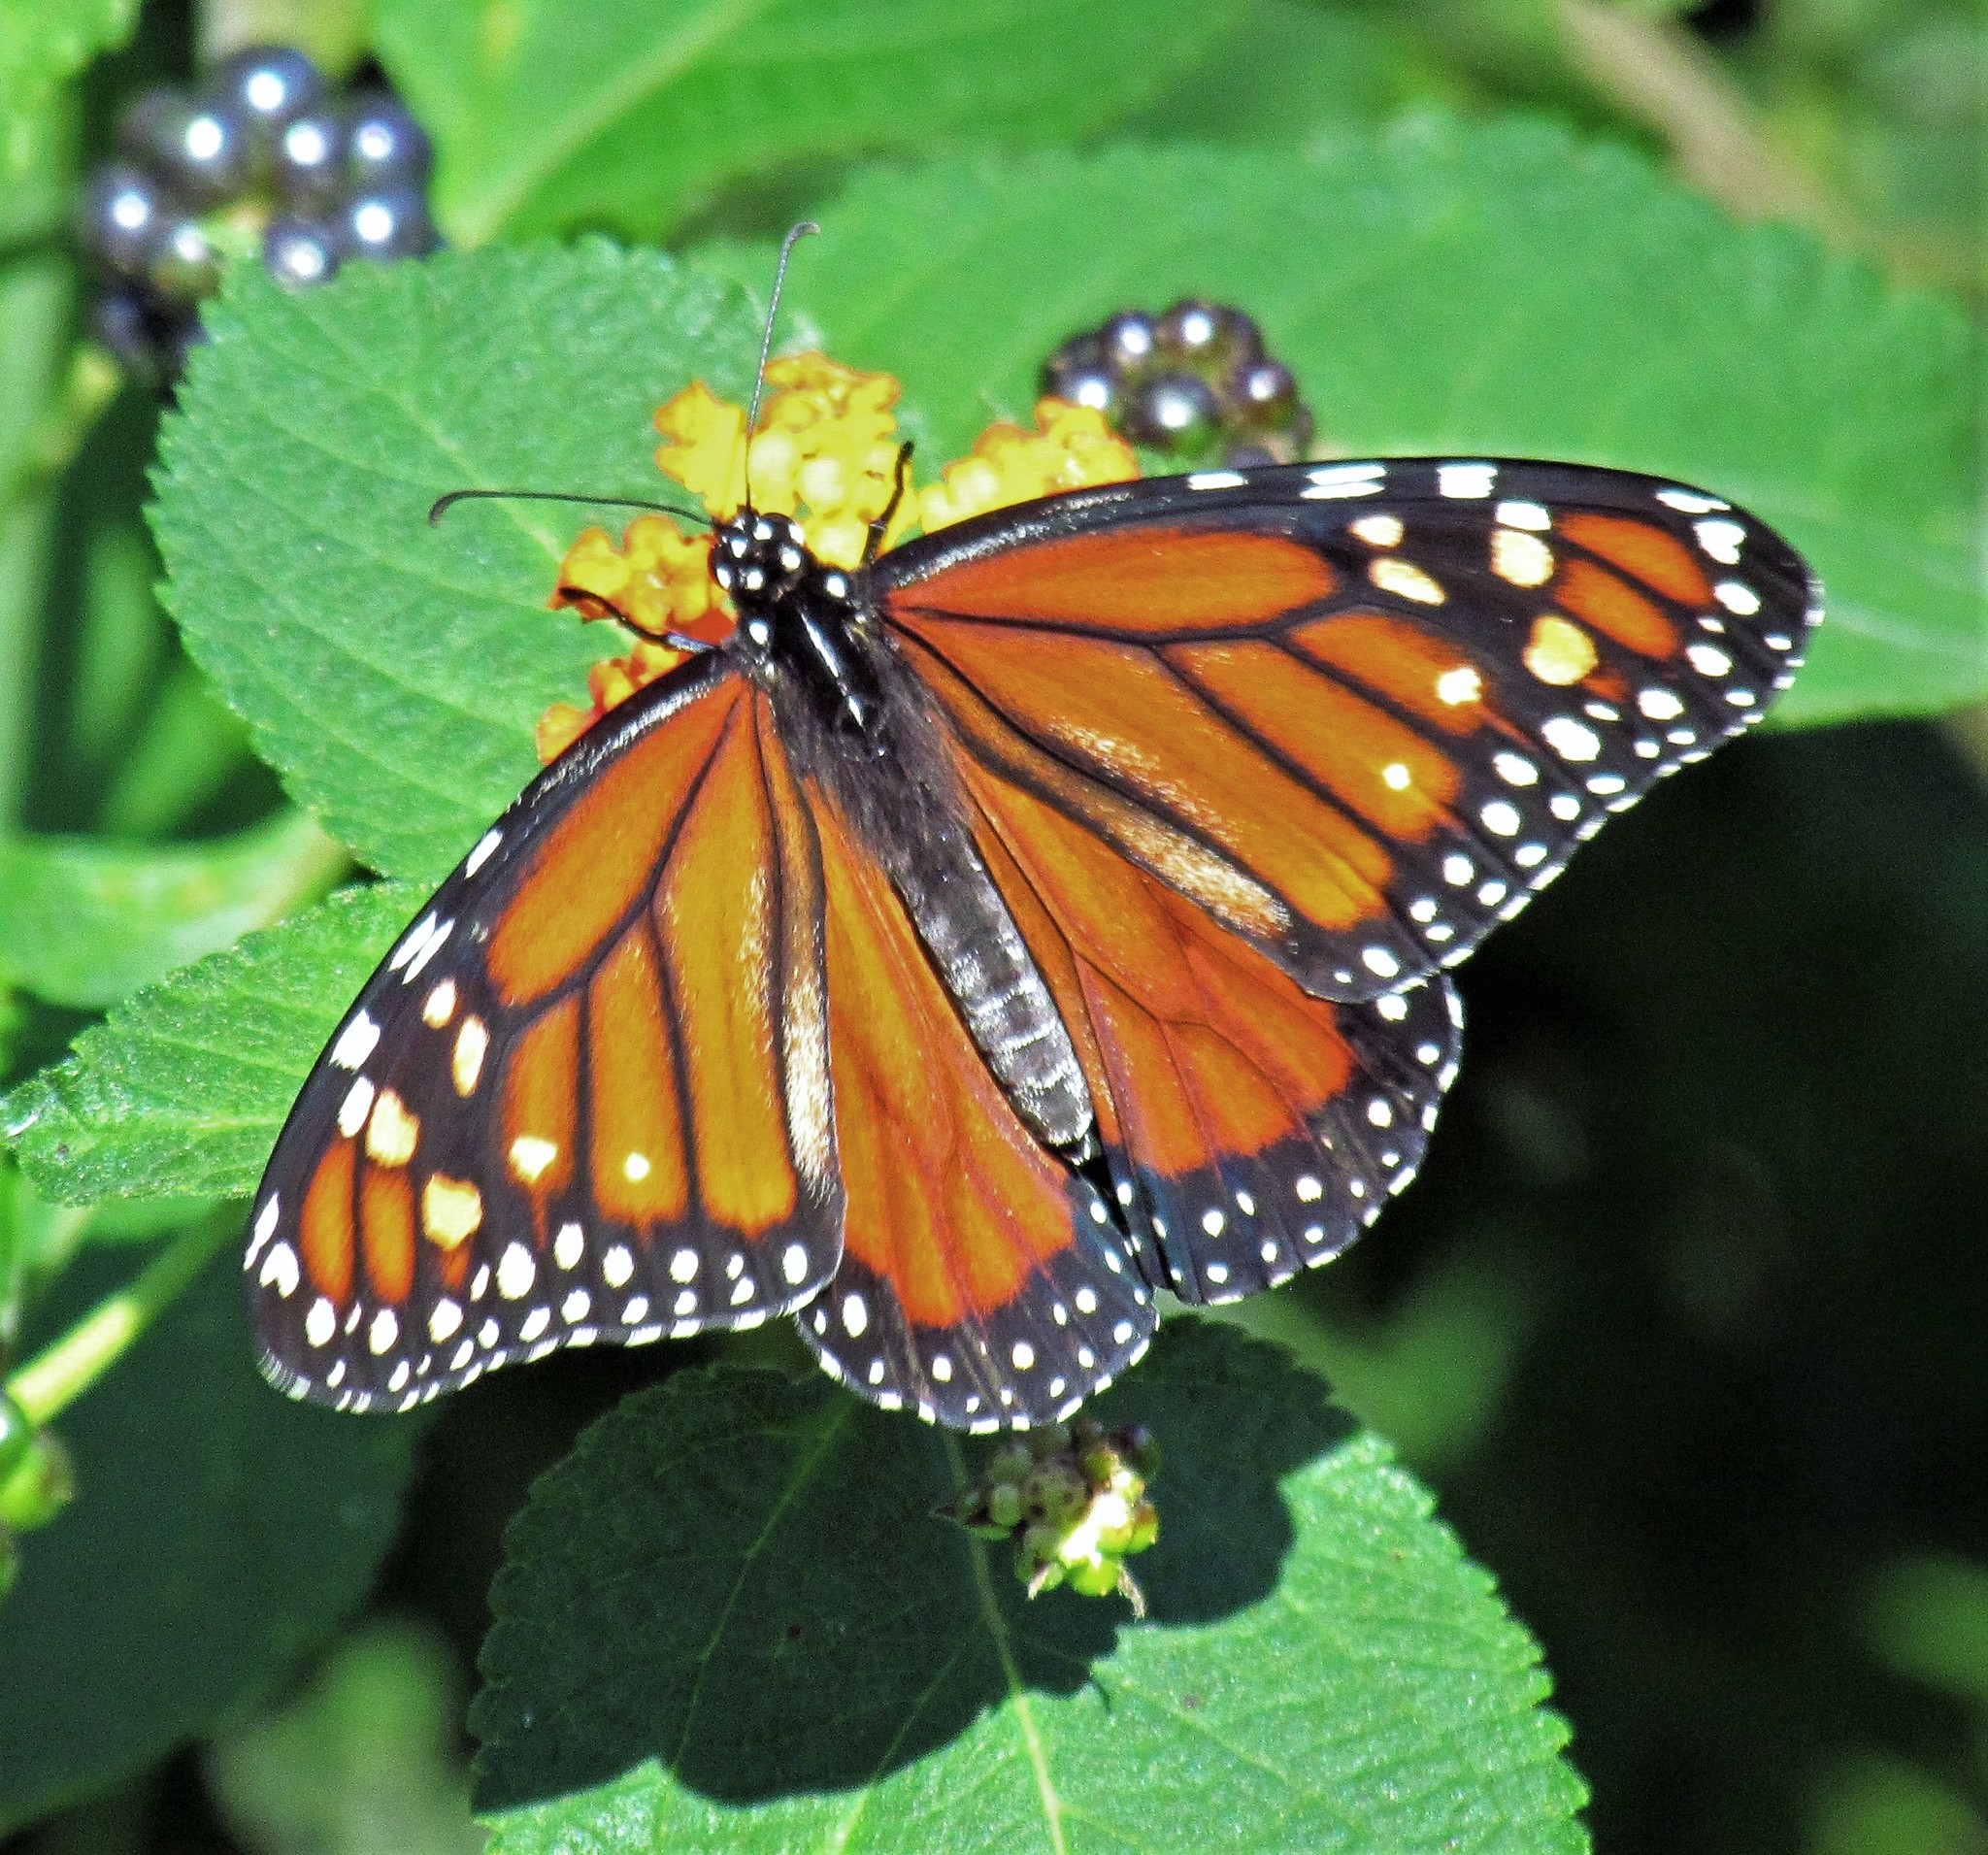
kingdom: Animalia
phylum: Arthropoda
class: Insecta
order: Lepidoptera
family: Nymphalidae
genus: Danaus
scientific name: Danaus erippus
